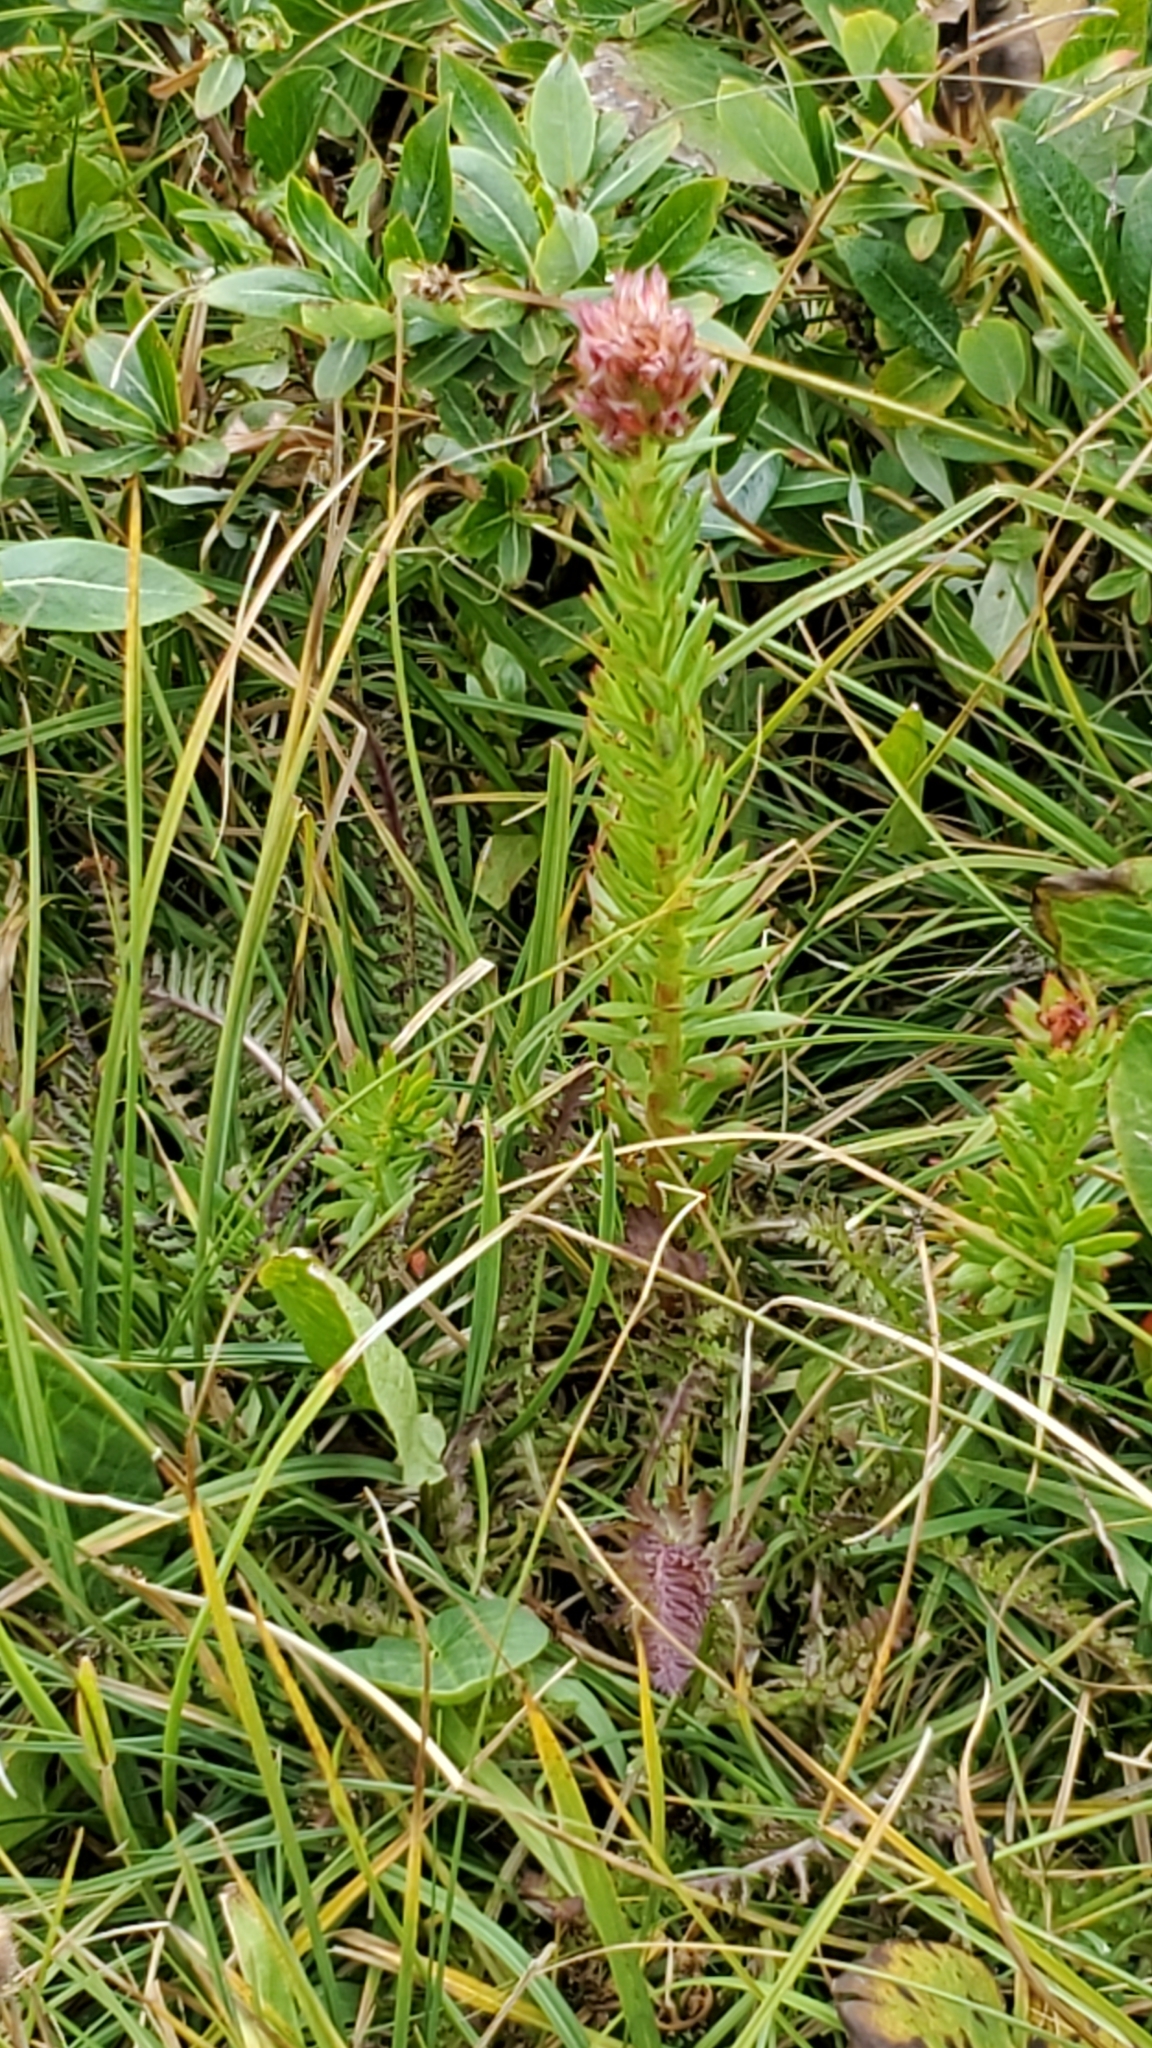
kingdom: Plantae
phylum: Tracheophyta
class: Magnoliopsida
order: Saxifragales
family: Crassulaceae
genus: Rhodiola
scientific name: Rhodiola rhodantha
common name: Red orpine
